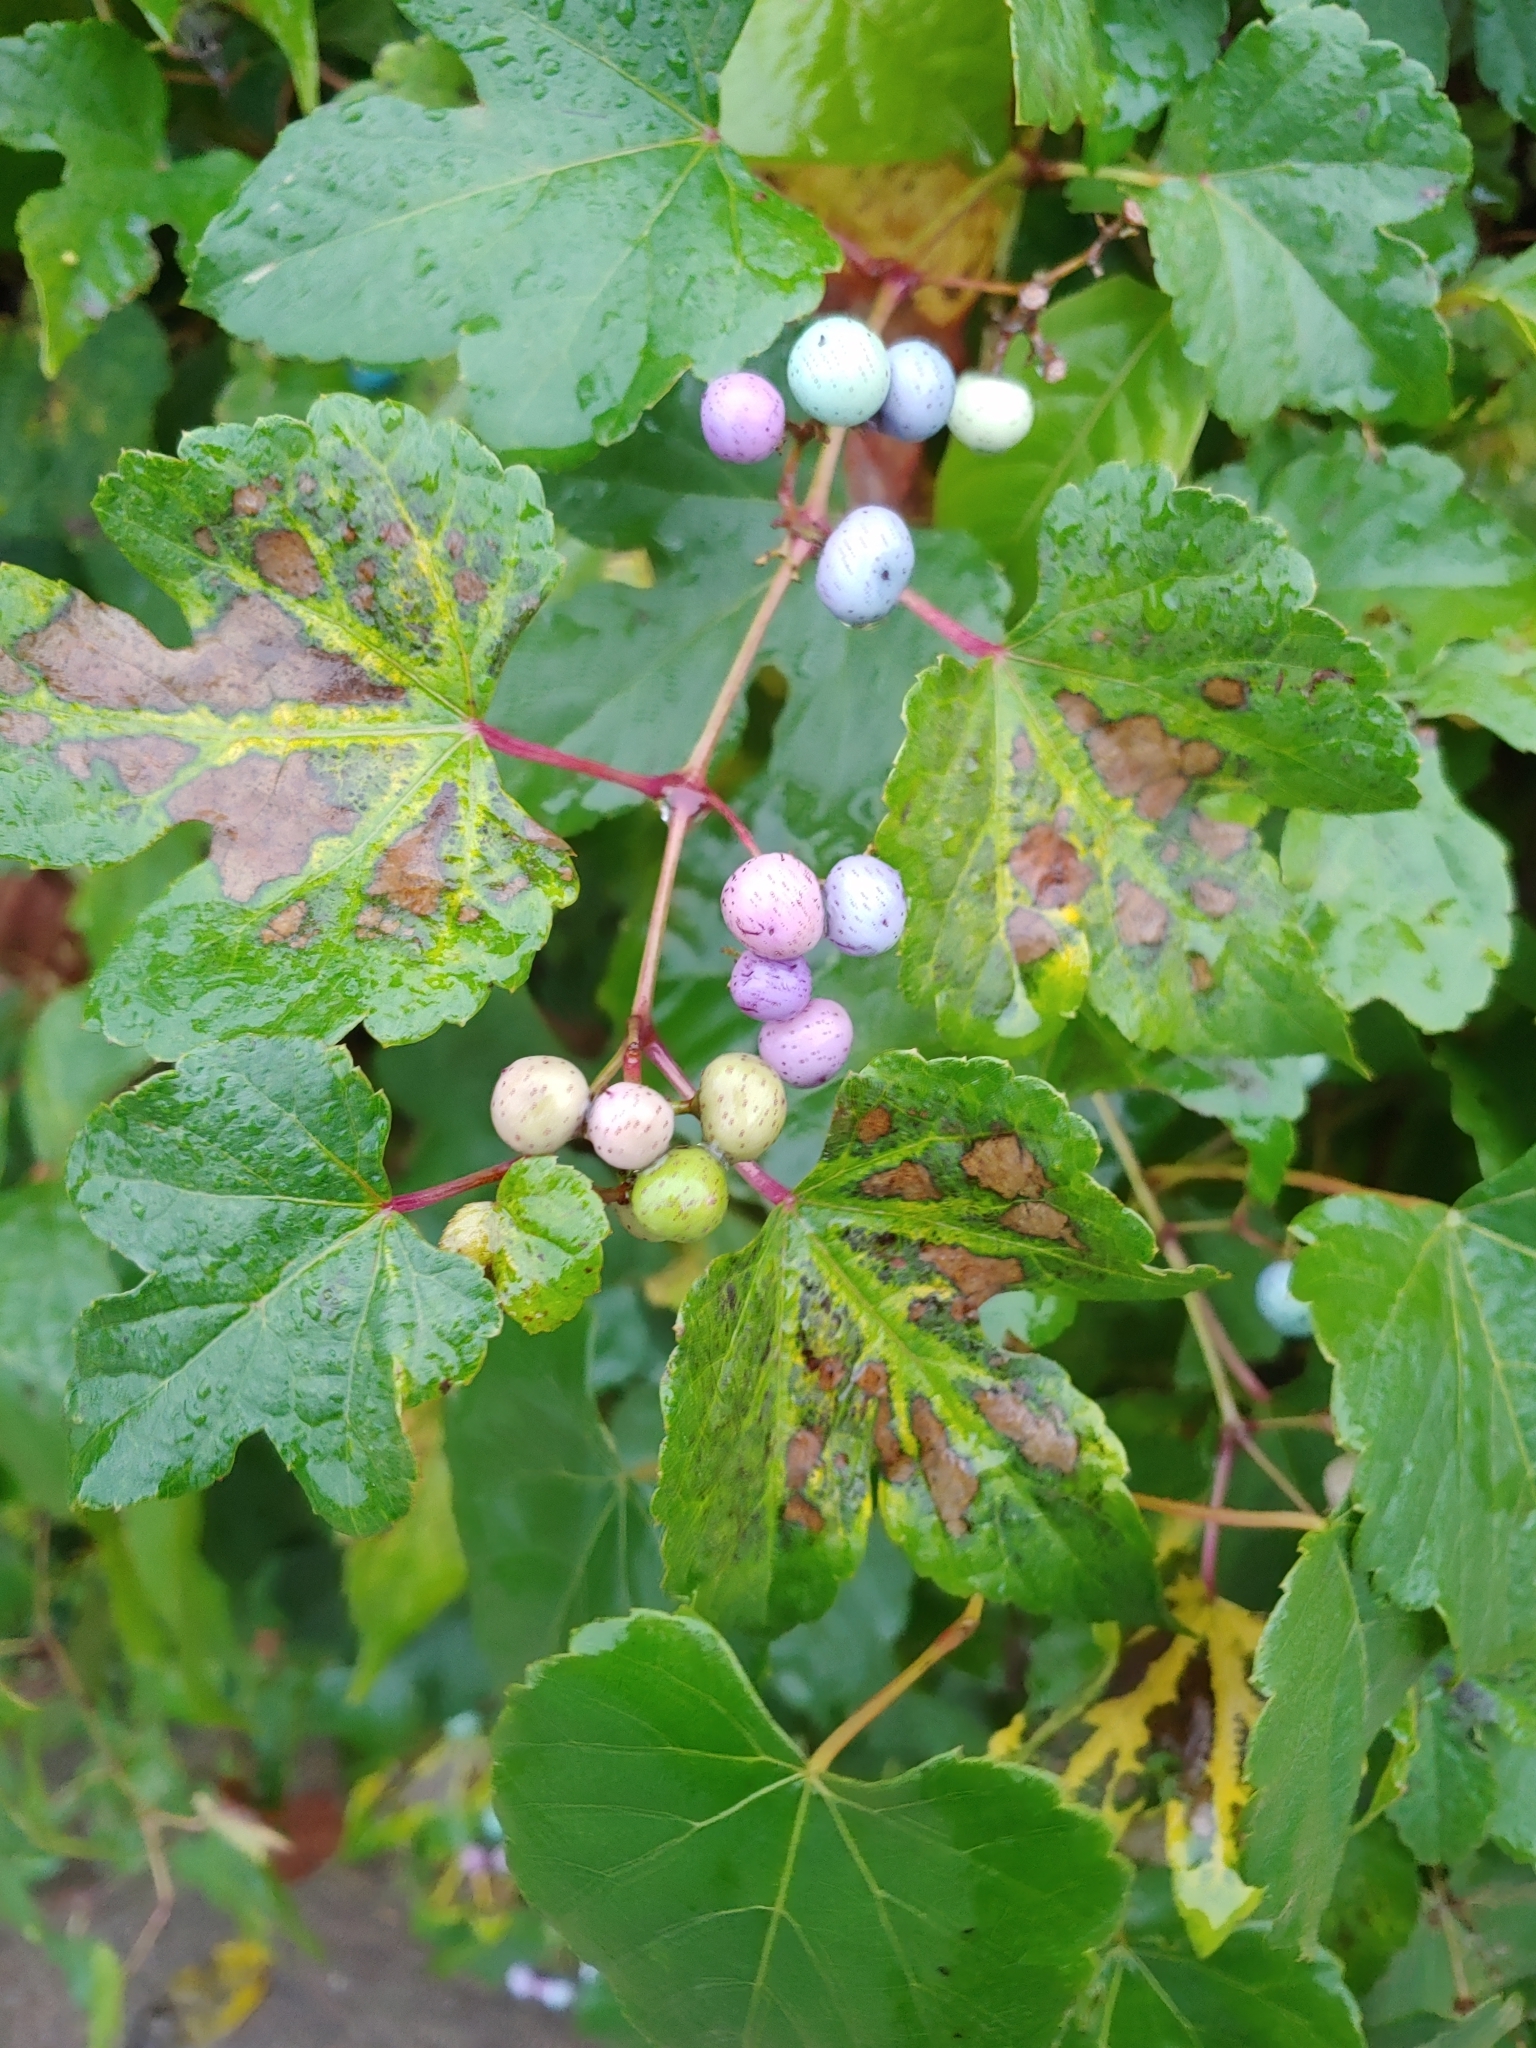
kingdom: Plantae
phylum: Tracheophyta
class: Magnoliopsida
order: Vitales
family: Vitaceae
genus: Ampelopsis
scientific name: Ampelopsis glandulosa
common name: Amur peppervine
